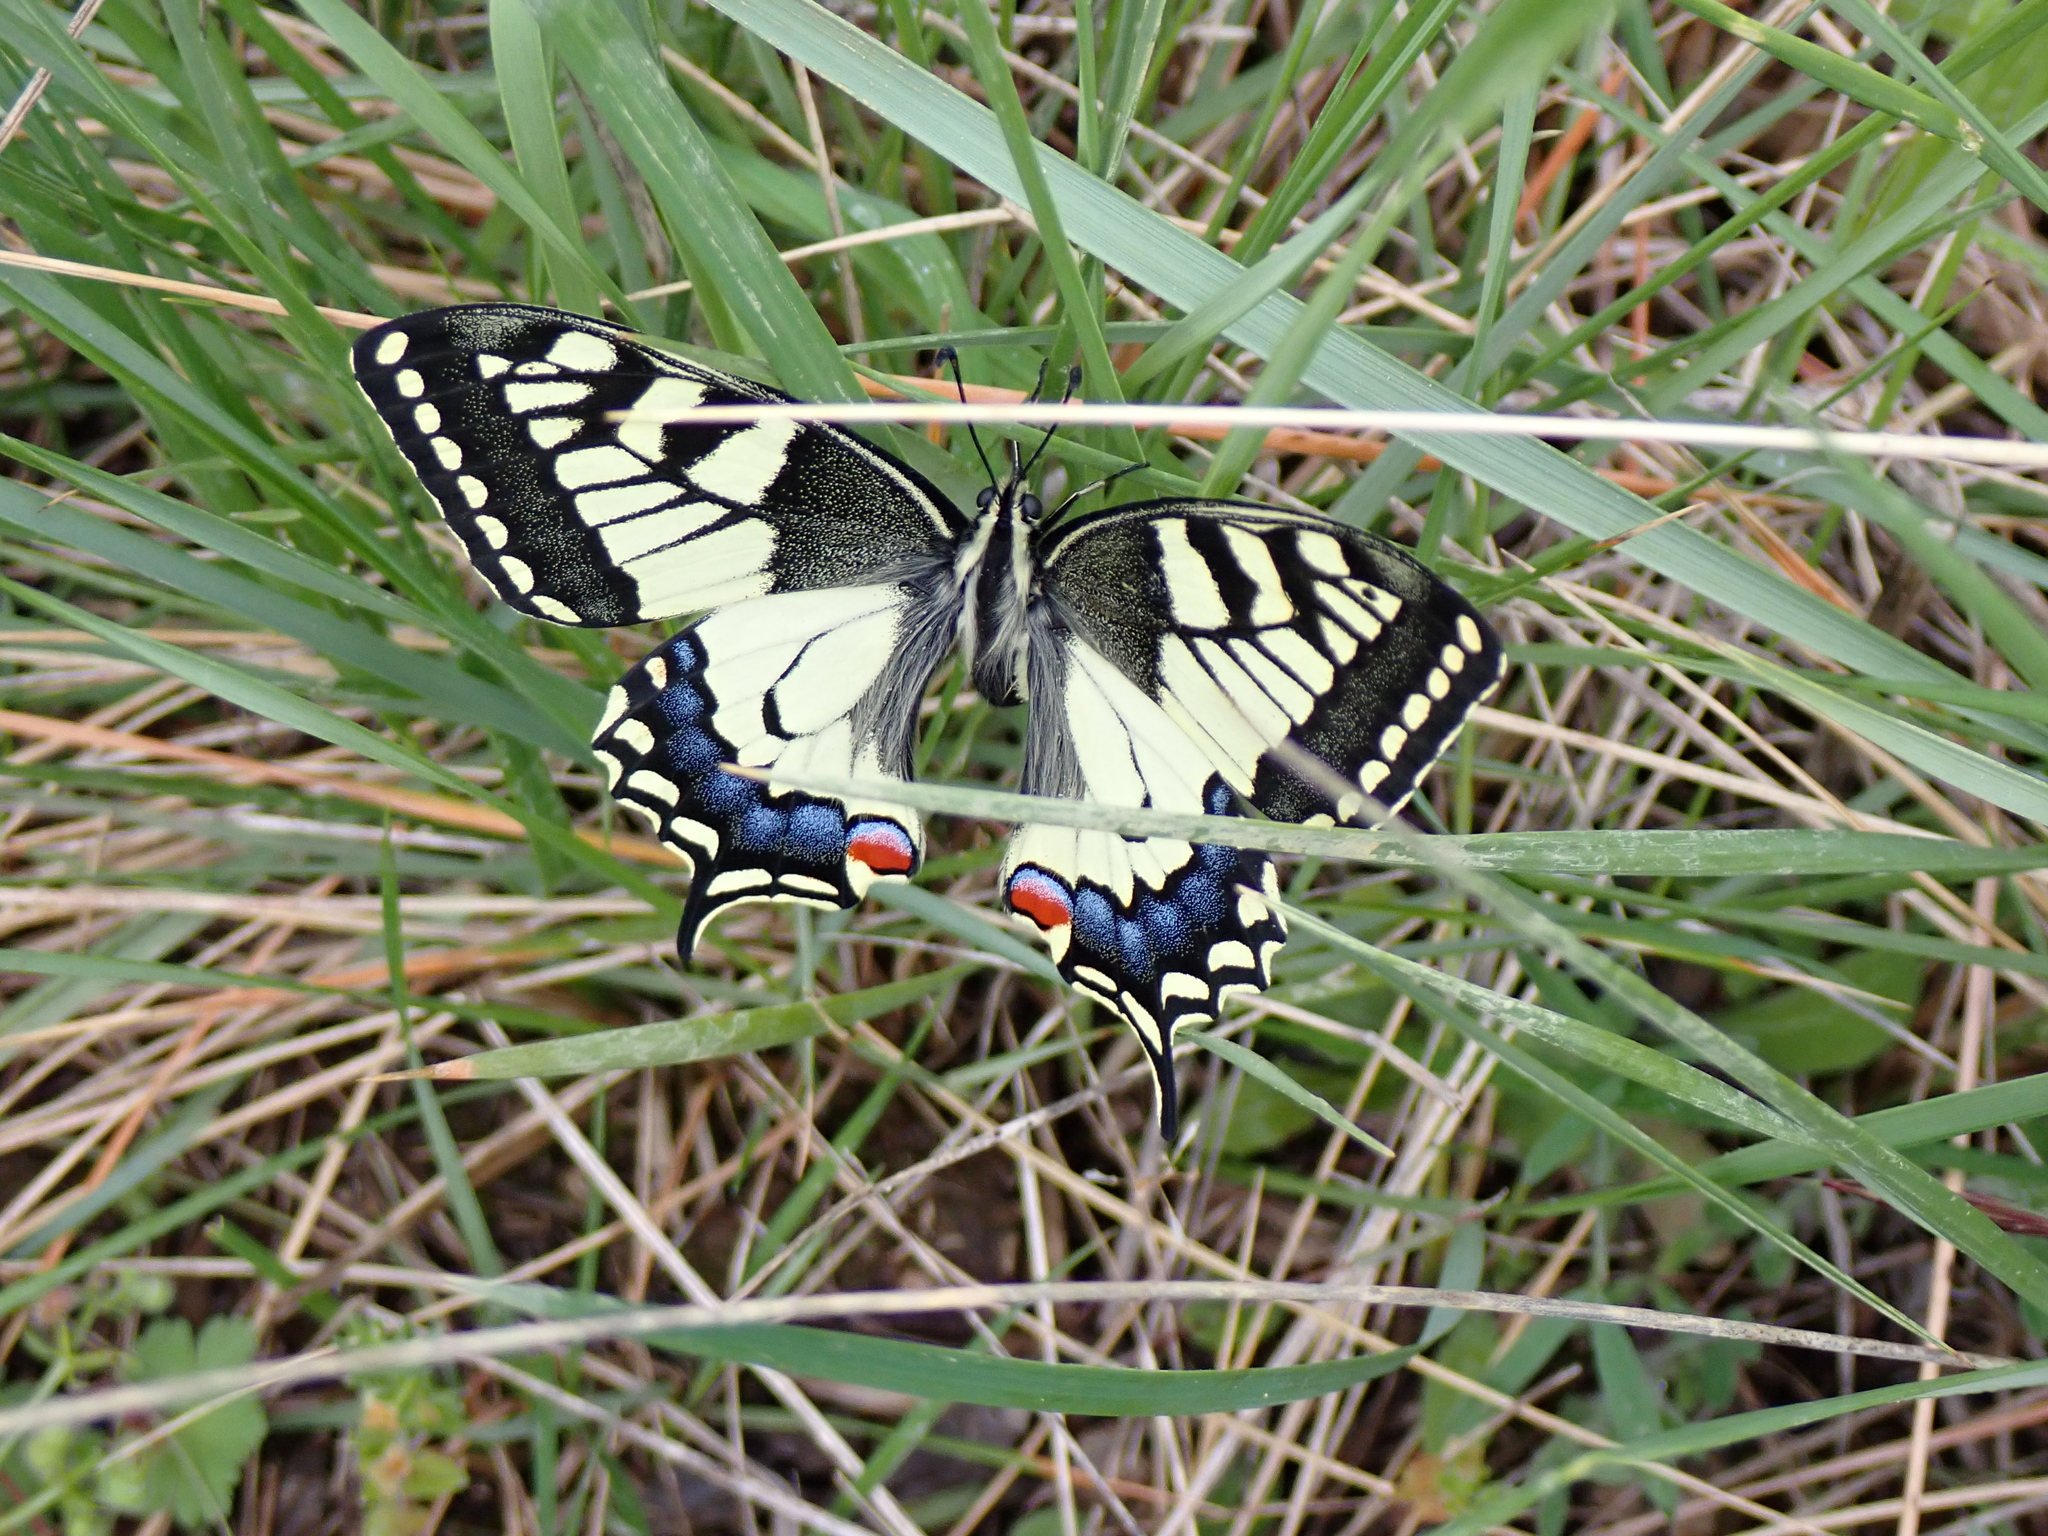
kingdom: Animalia
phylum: Arthropoda
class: Insecta
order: Lepidoptera
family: Papilionidae
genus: Papilio
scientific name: Papilio machaon
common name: Swallowtail
